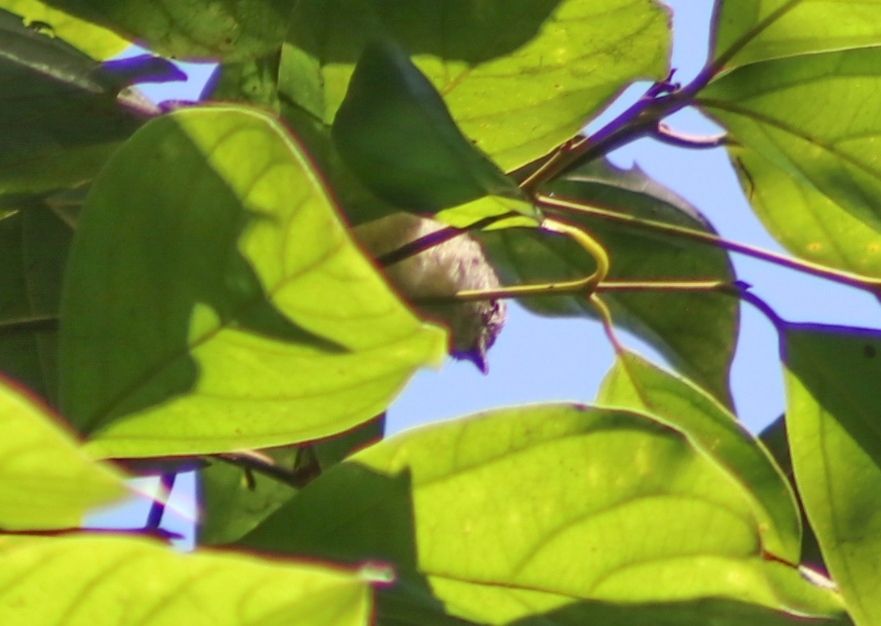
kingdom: Animalia
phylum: Chordata
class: Aves
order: Passeriformes
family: Petroicidae
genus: Microeca
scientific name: Microeca flavigaster
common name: Lemon-bellied flyrobin
